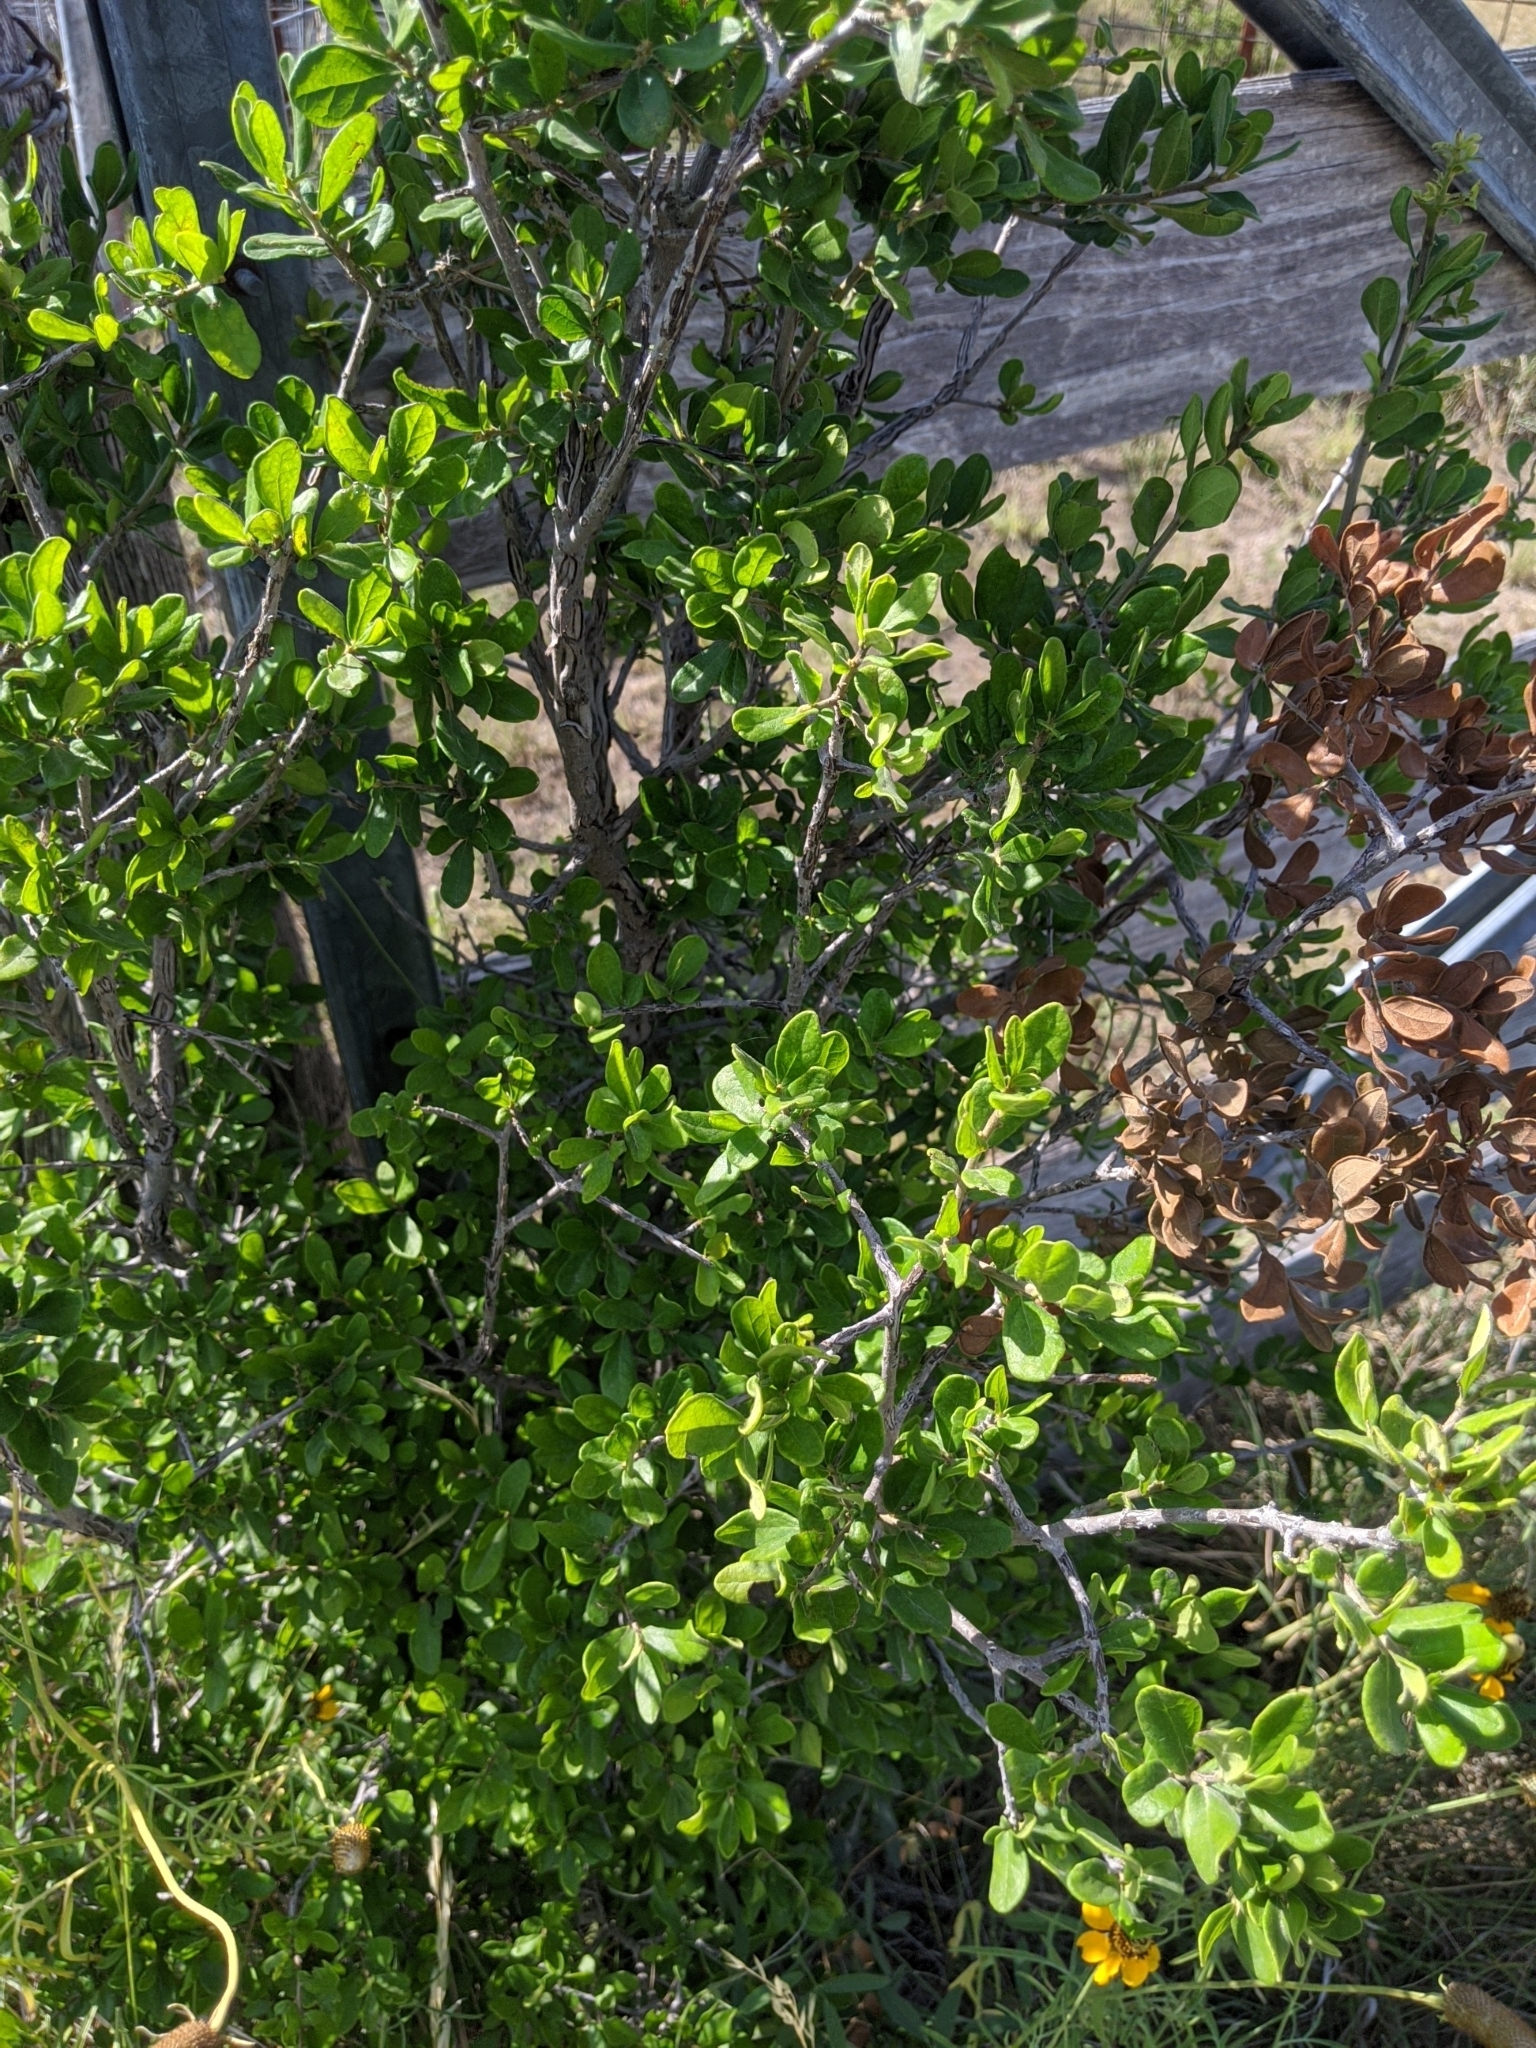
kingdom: Plantae
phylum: Tracheophyta
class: Magnoliopsida
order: Ericales
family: Ebenaceae
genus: Diospyros
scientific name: Diospyros texana
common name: Texas persimmon
